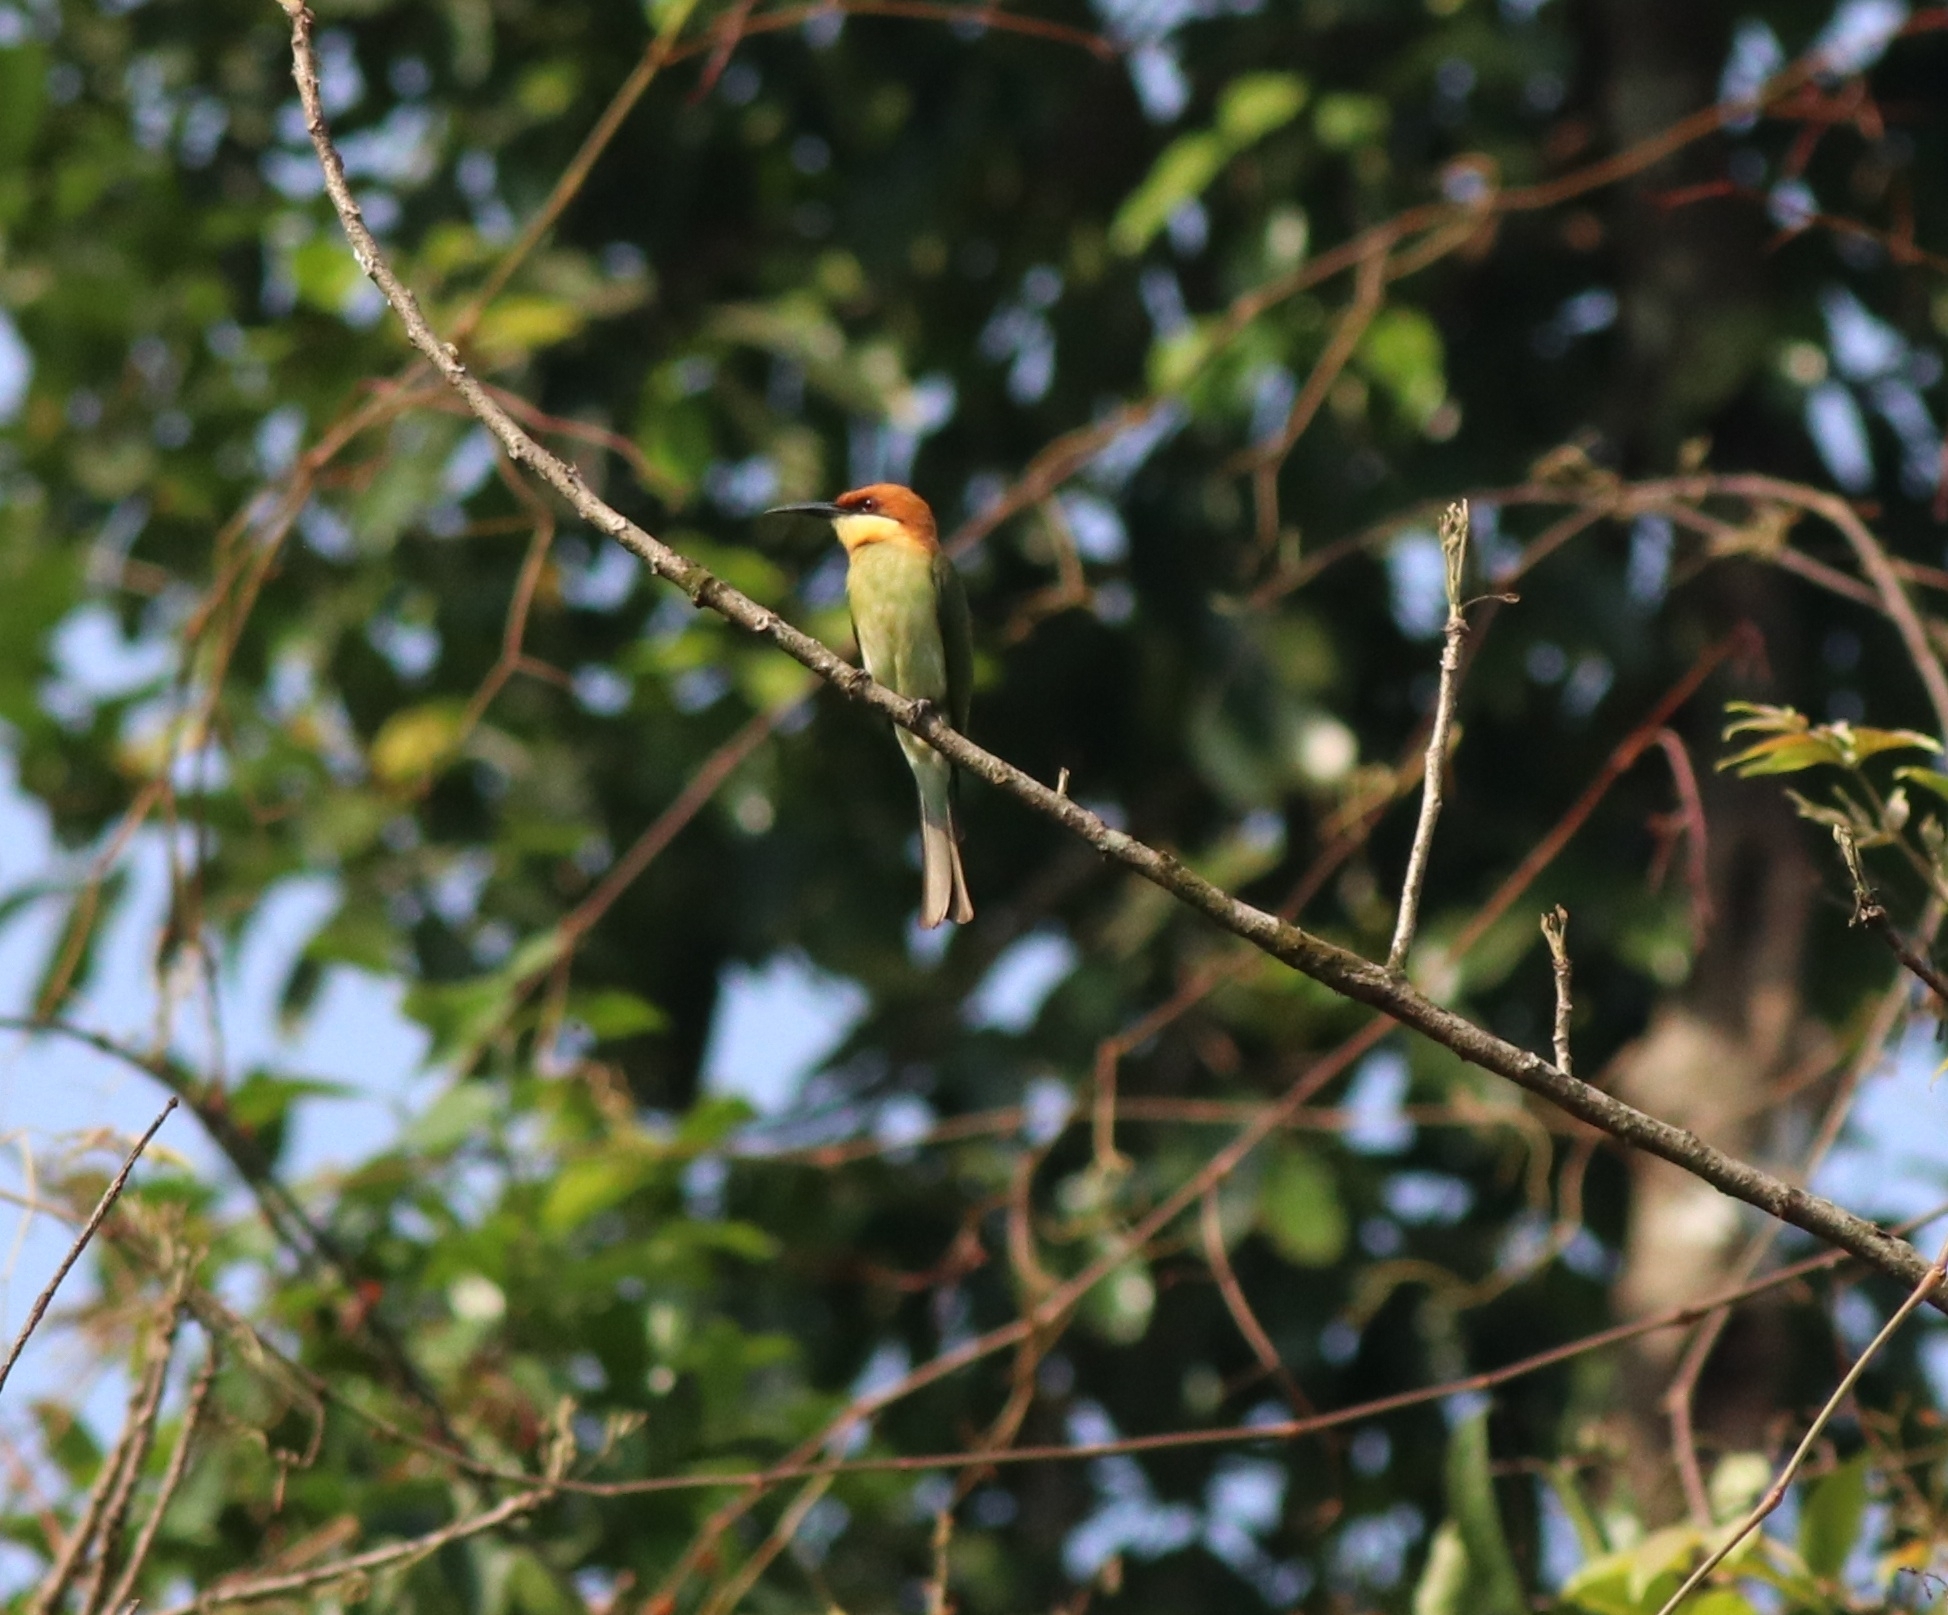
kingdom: Animalia
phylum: Chordata
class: Aves
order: Coraciiformes
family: Meropidae
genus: Merops
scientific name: Merops leschenaulti
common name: Chestnut-headed bee-eater
